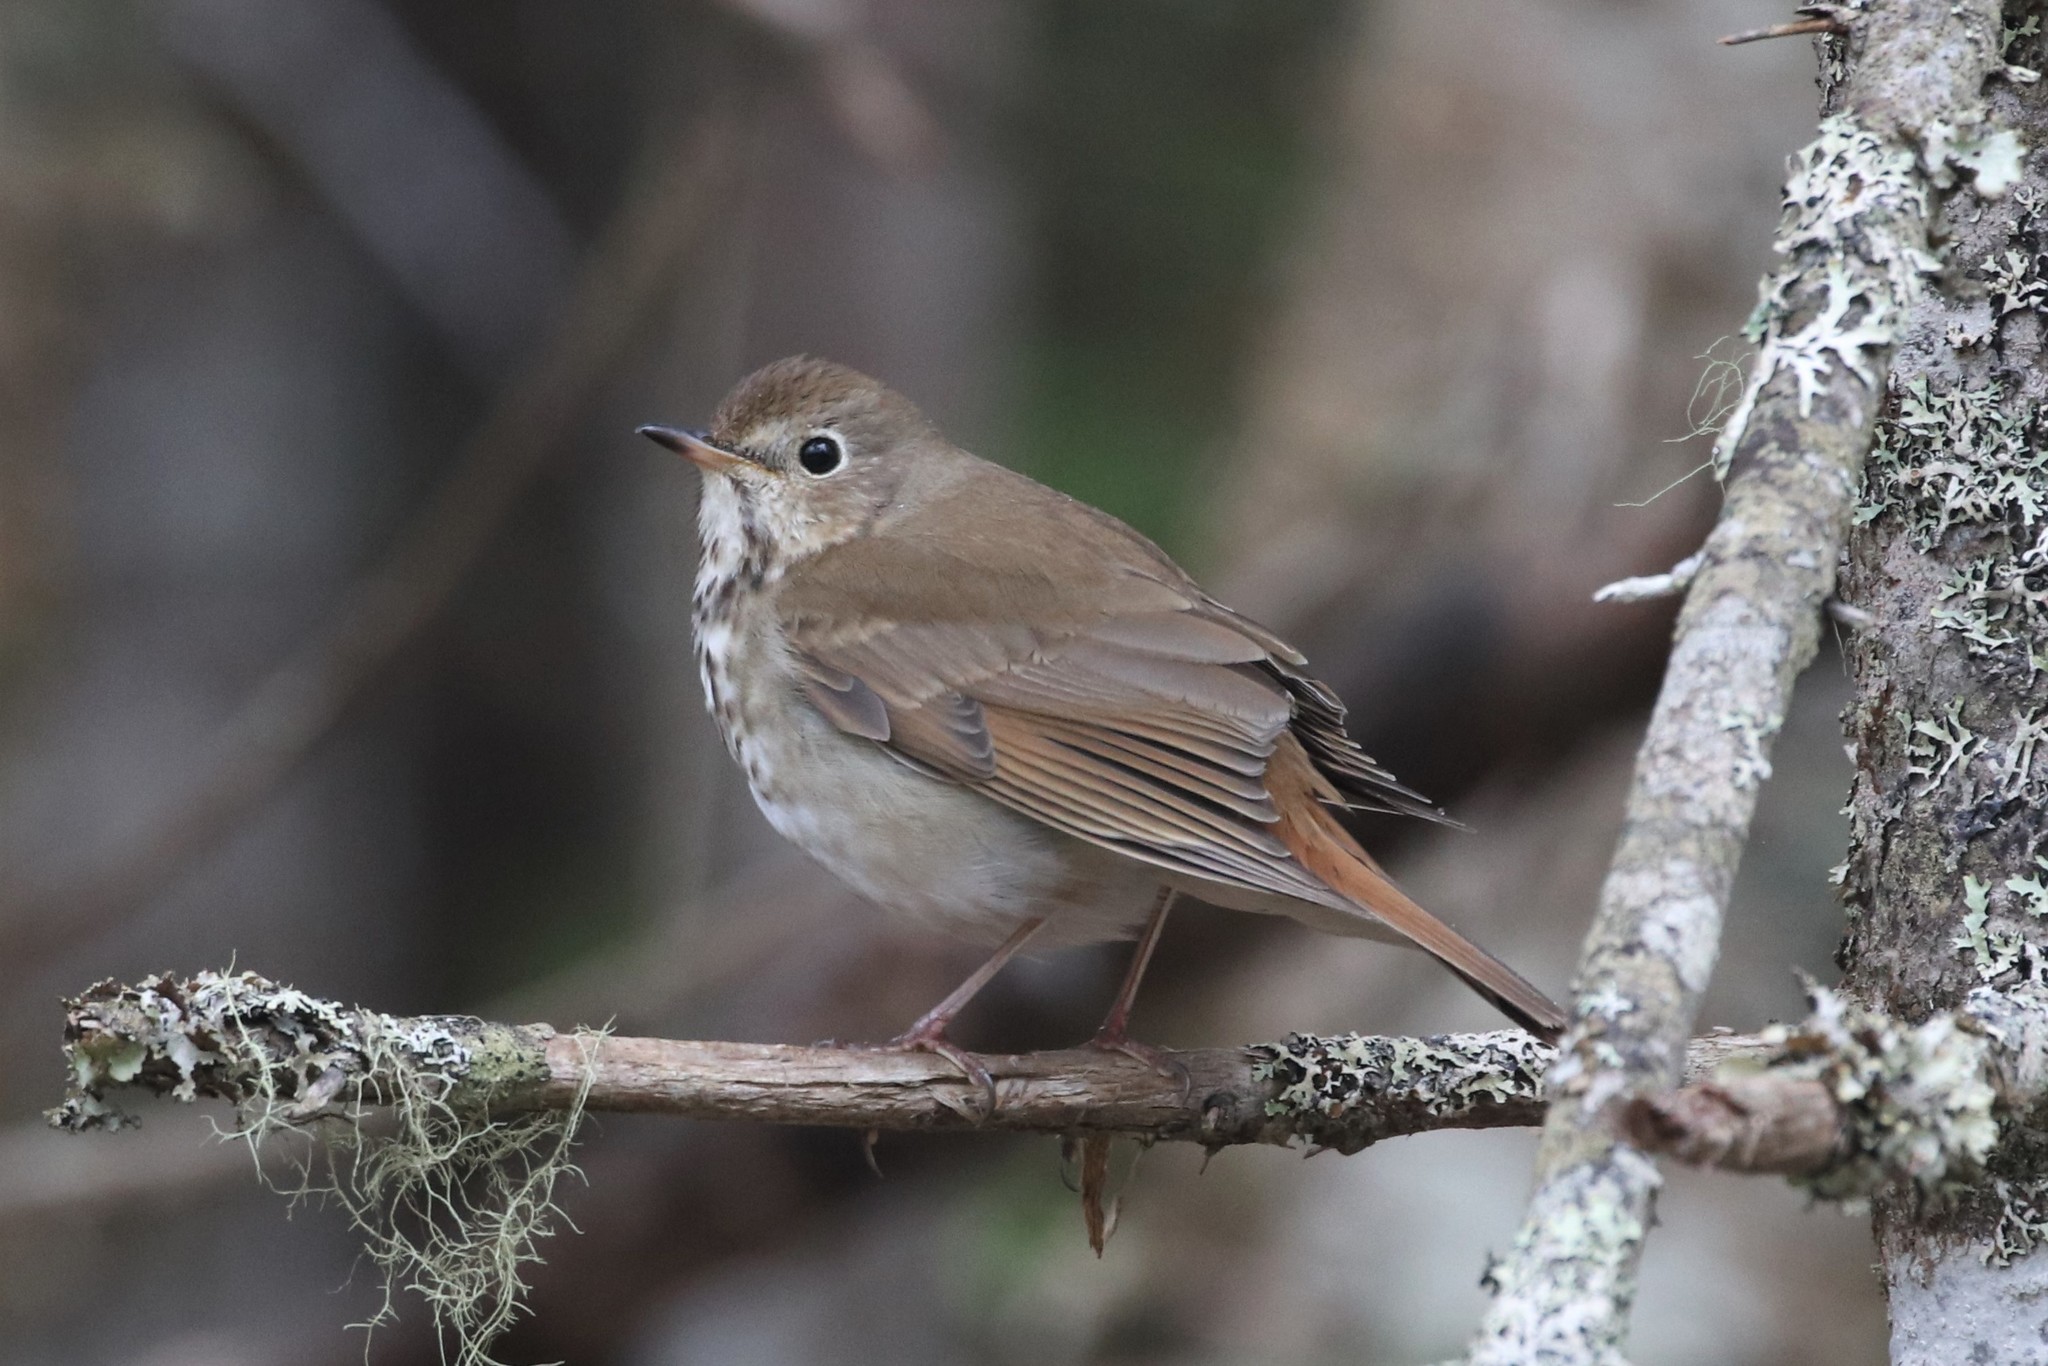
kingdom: Animalia
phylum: Chordata
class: Aves
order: Passeriformes
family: Turdidae
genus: Catharus
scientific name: Catharus guttatus
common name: Hermit thrush
